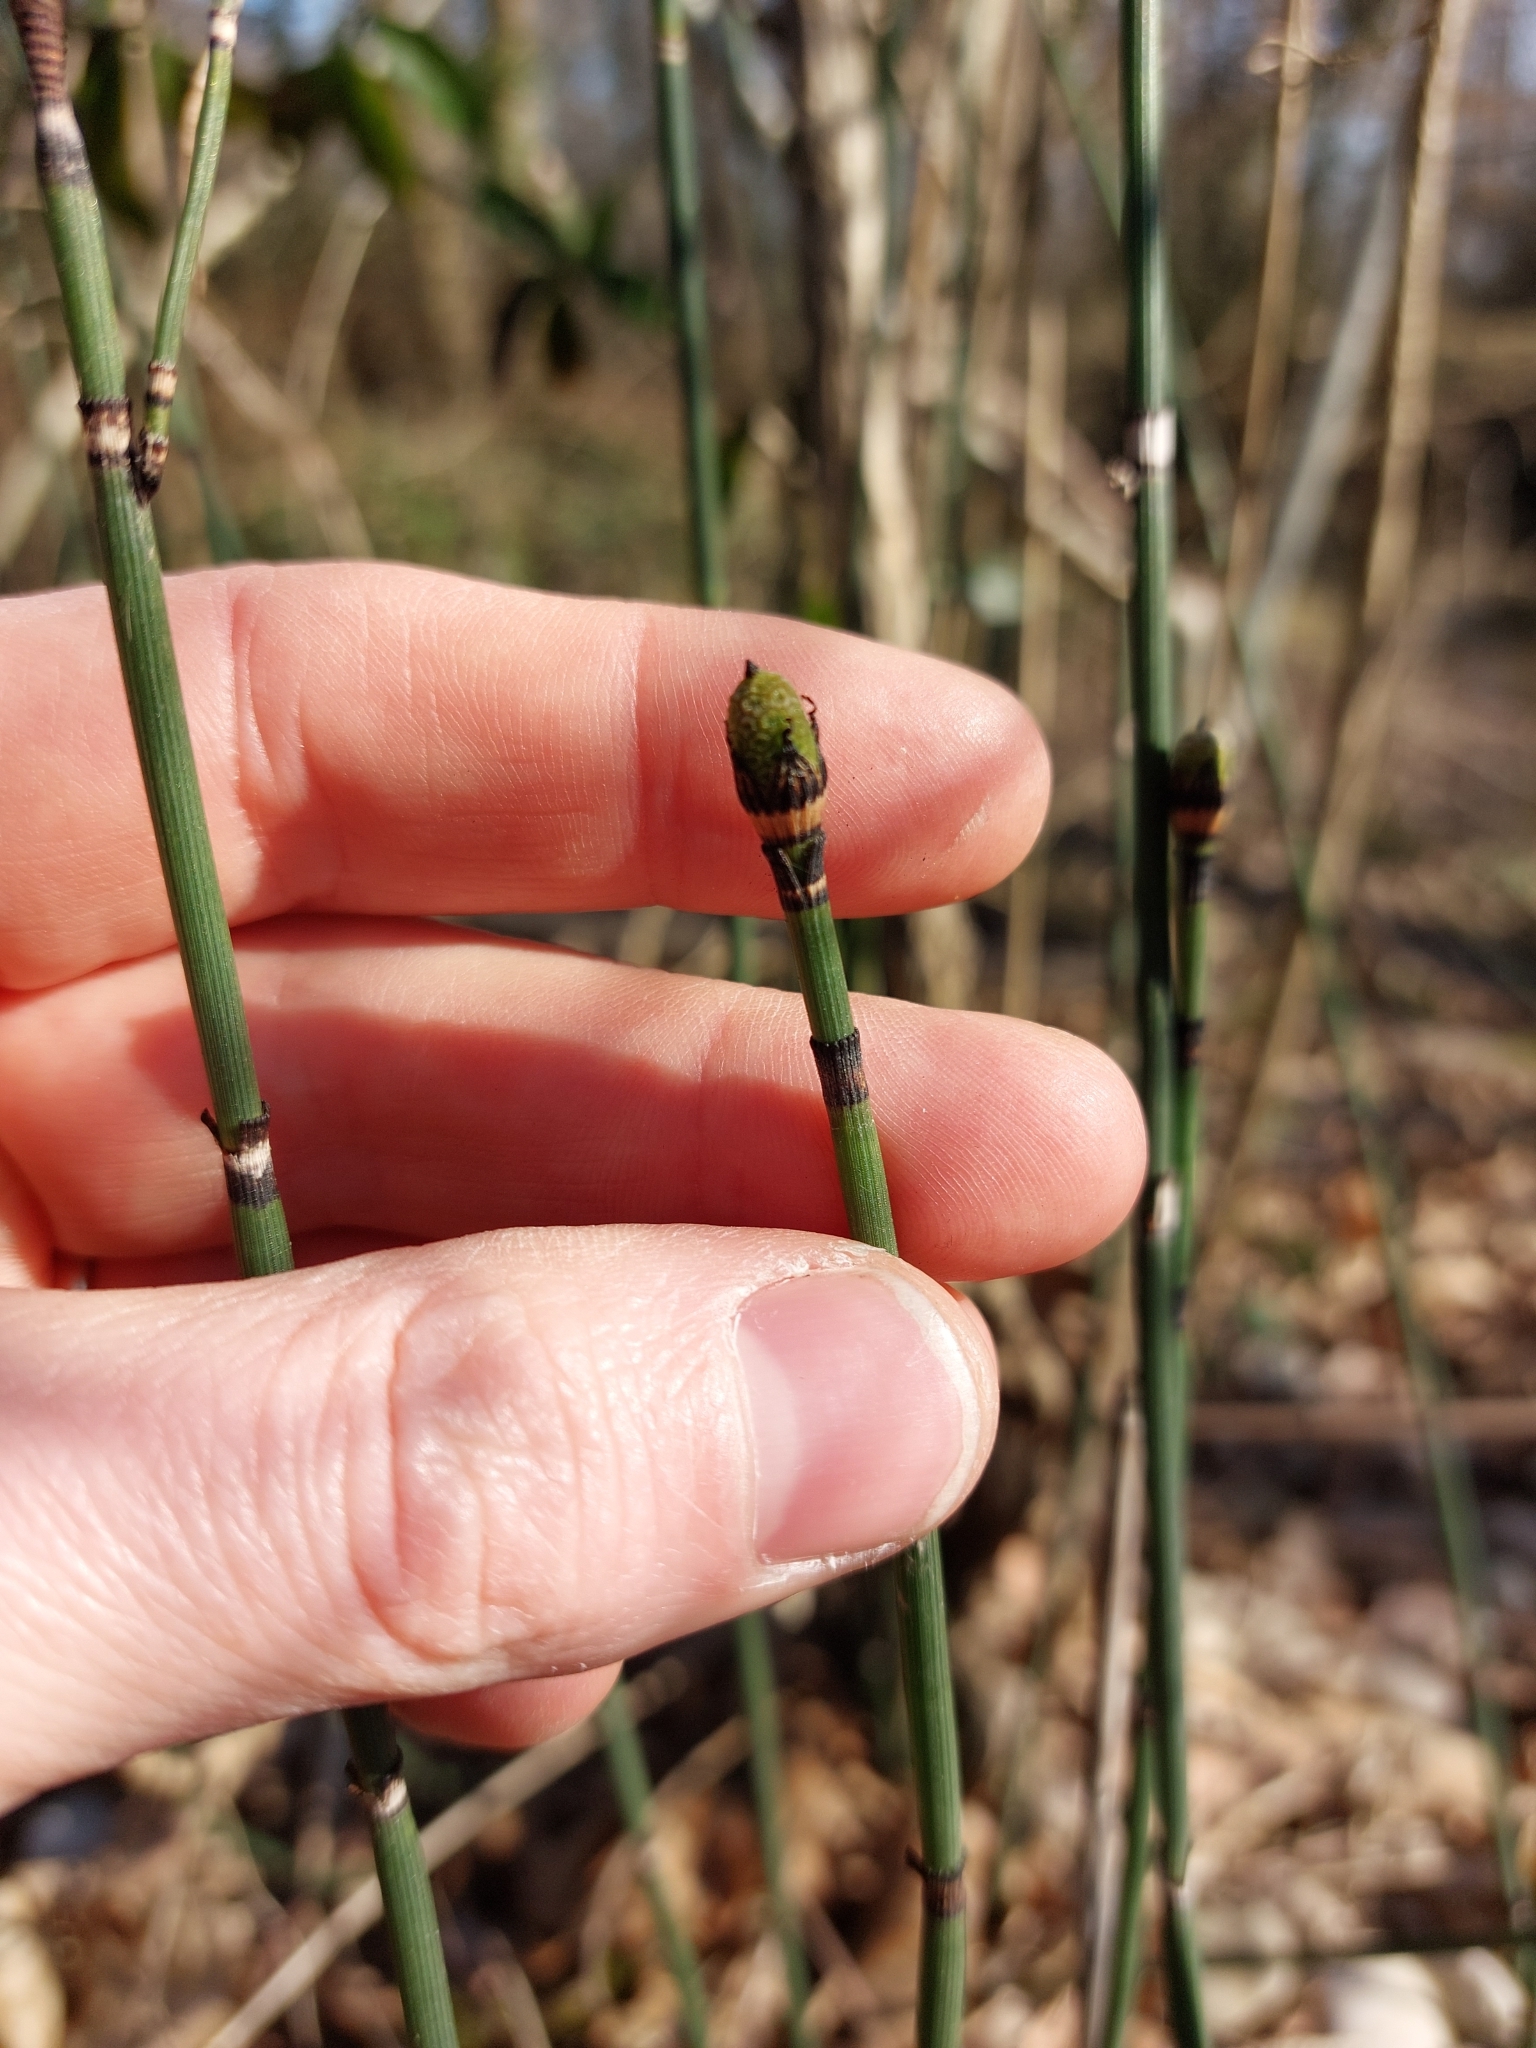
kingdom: Plantae
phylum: Tracheophyta
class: Polypodiopsida
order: Equisetales
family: Equisetaceae
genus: Equisetum
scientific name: Equisetum hyemale
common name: Rough horsetail
